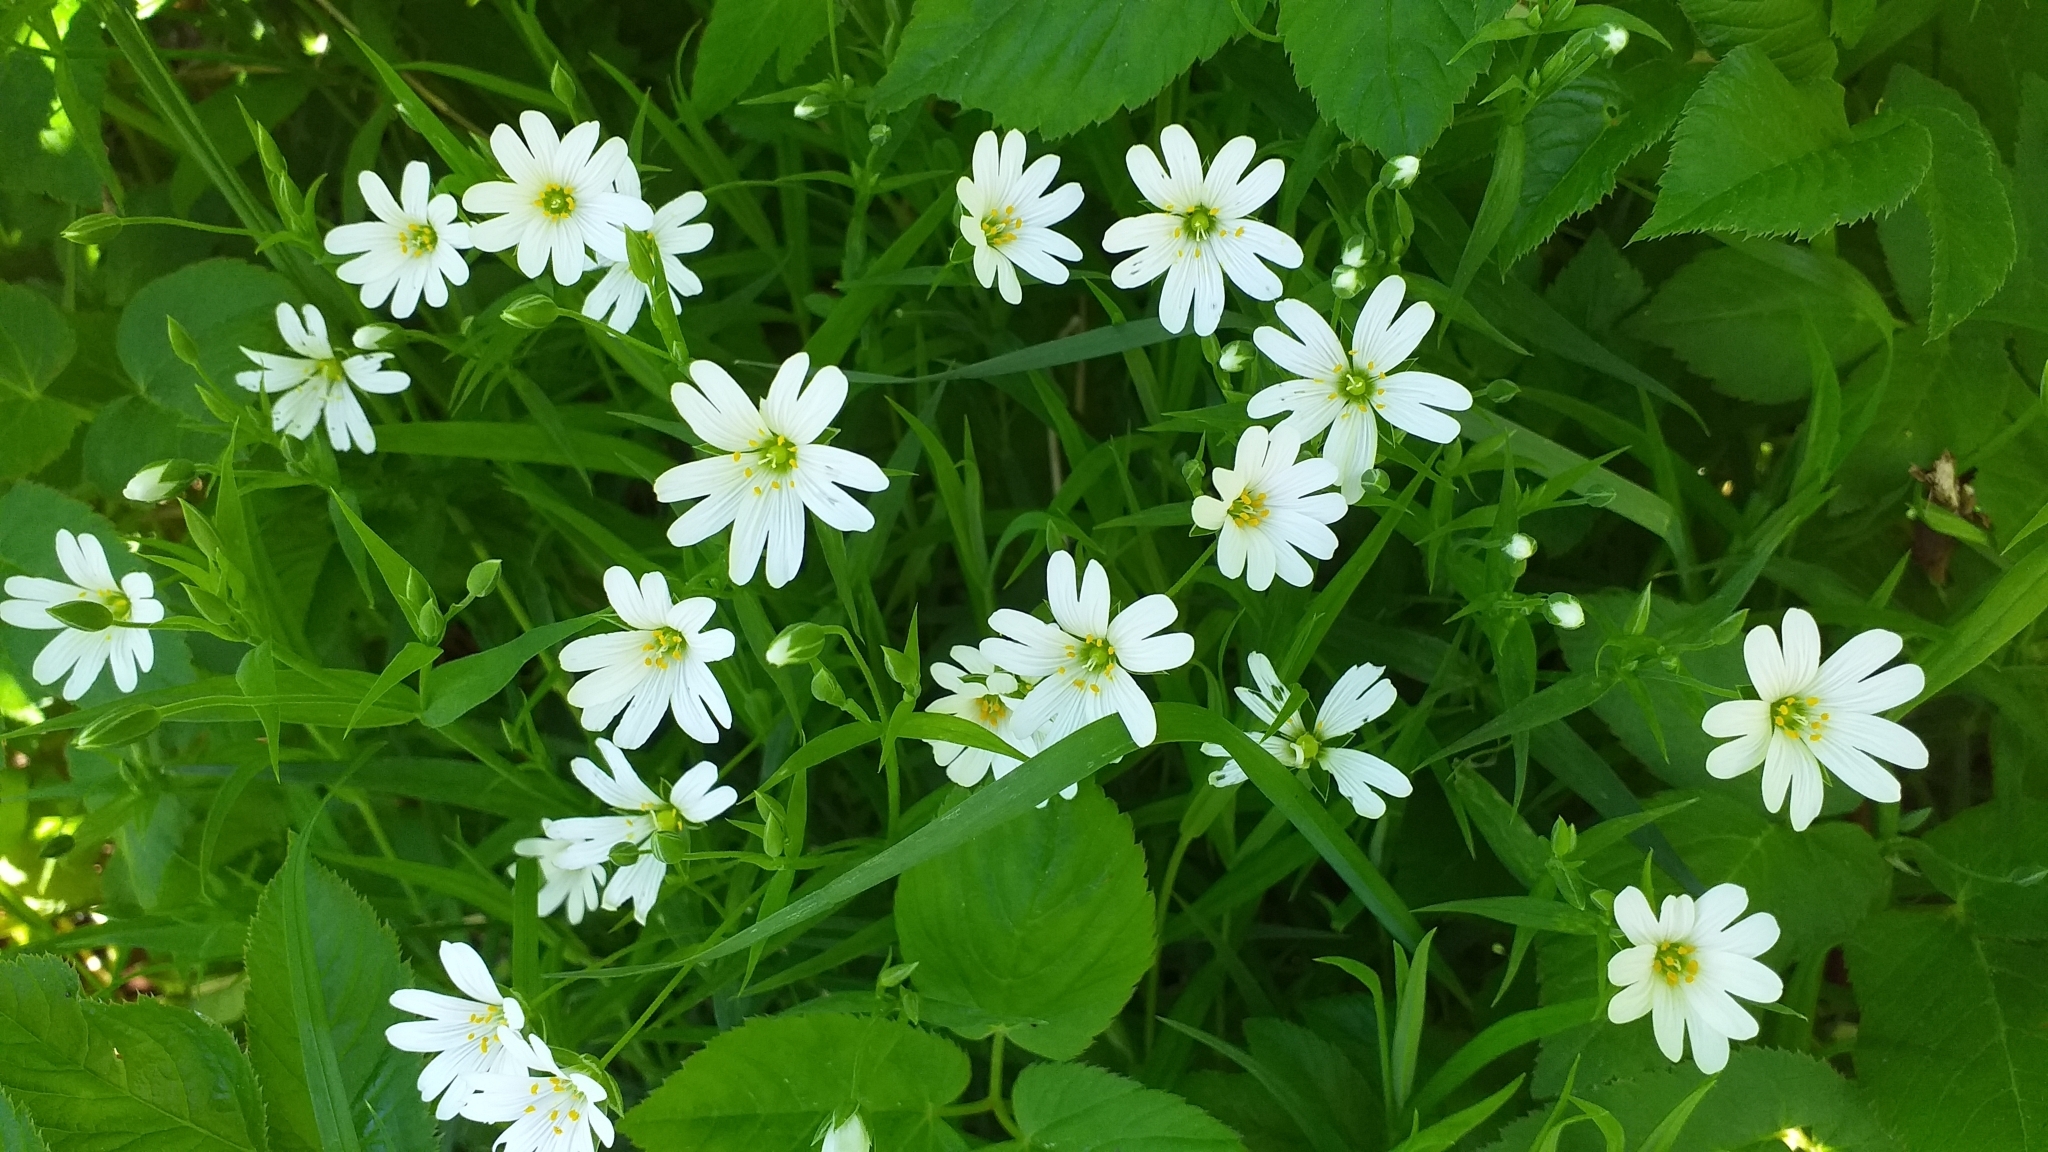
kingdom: Plantae
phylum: Tracheophyta
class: Magnoliopsida
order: Caryophyllales
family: Caryophyllaceae
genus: Rabelera
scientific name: Rabelera holostea
